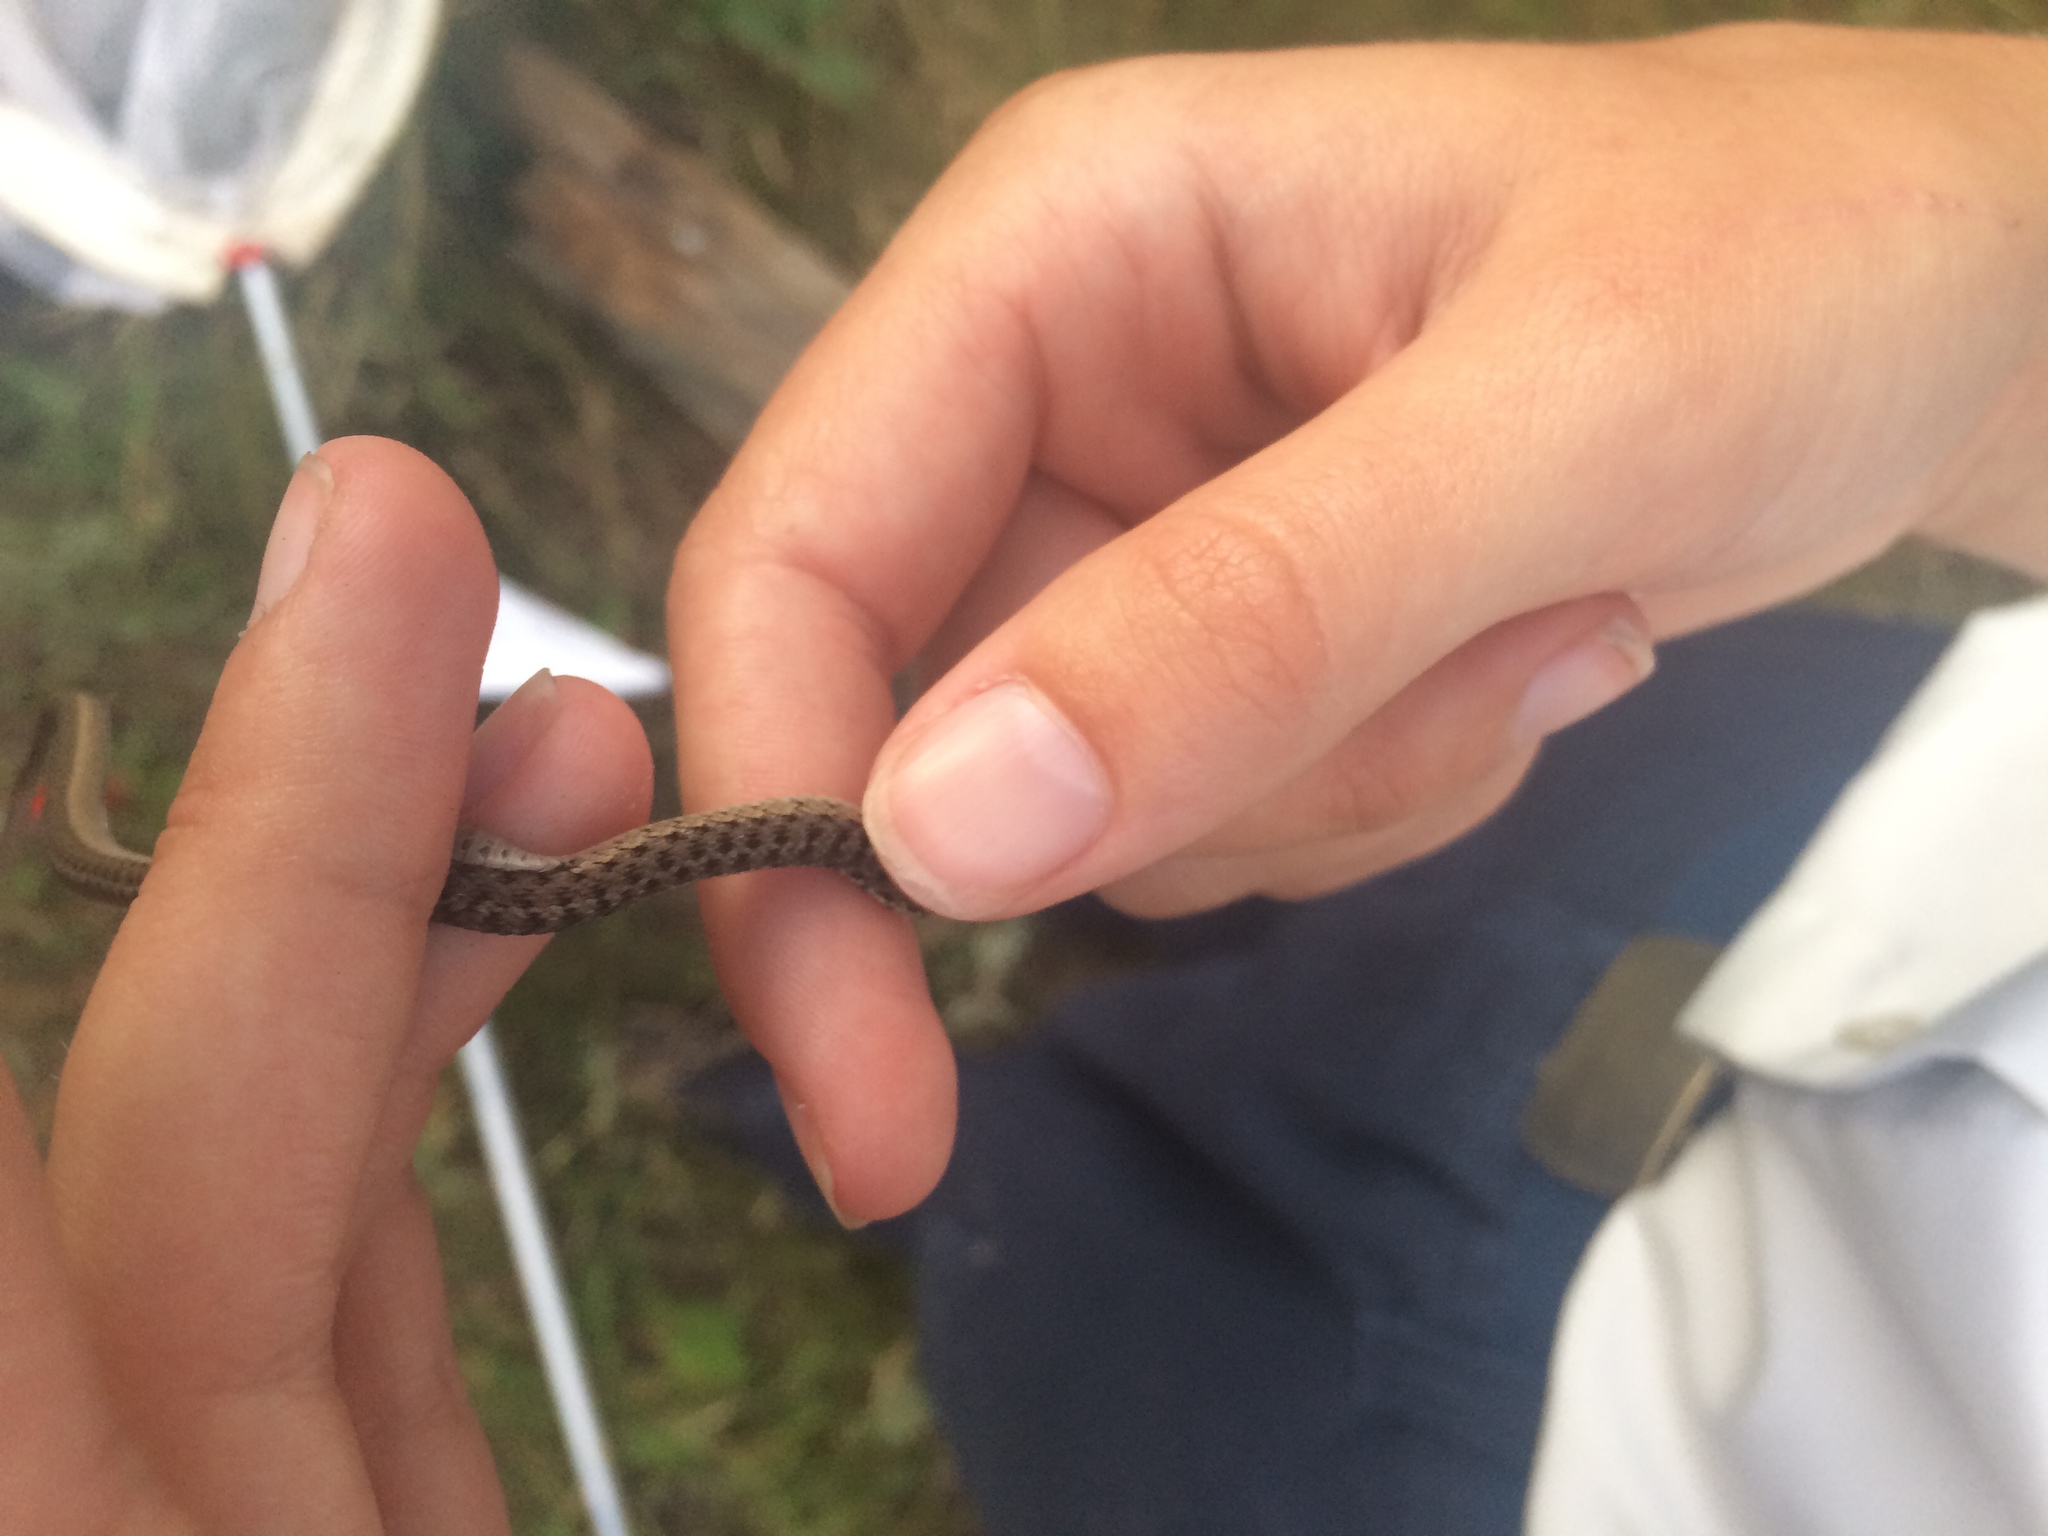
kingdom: Animalia
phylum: Chordata
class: Squamata
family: Colubridae
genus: Thamnophis
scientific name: Thamnophis sirtalis
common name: Common garter snake
